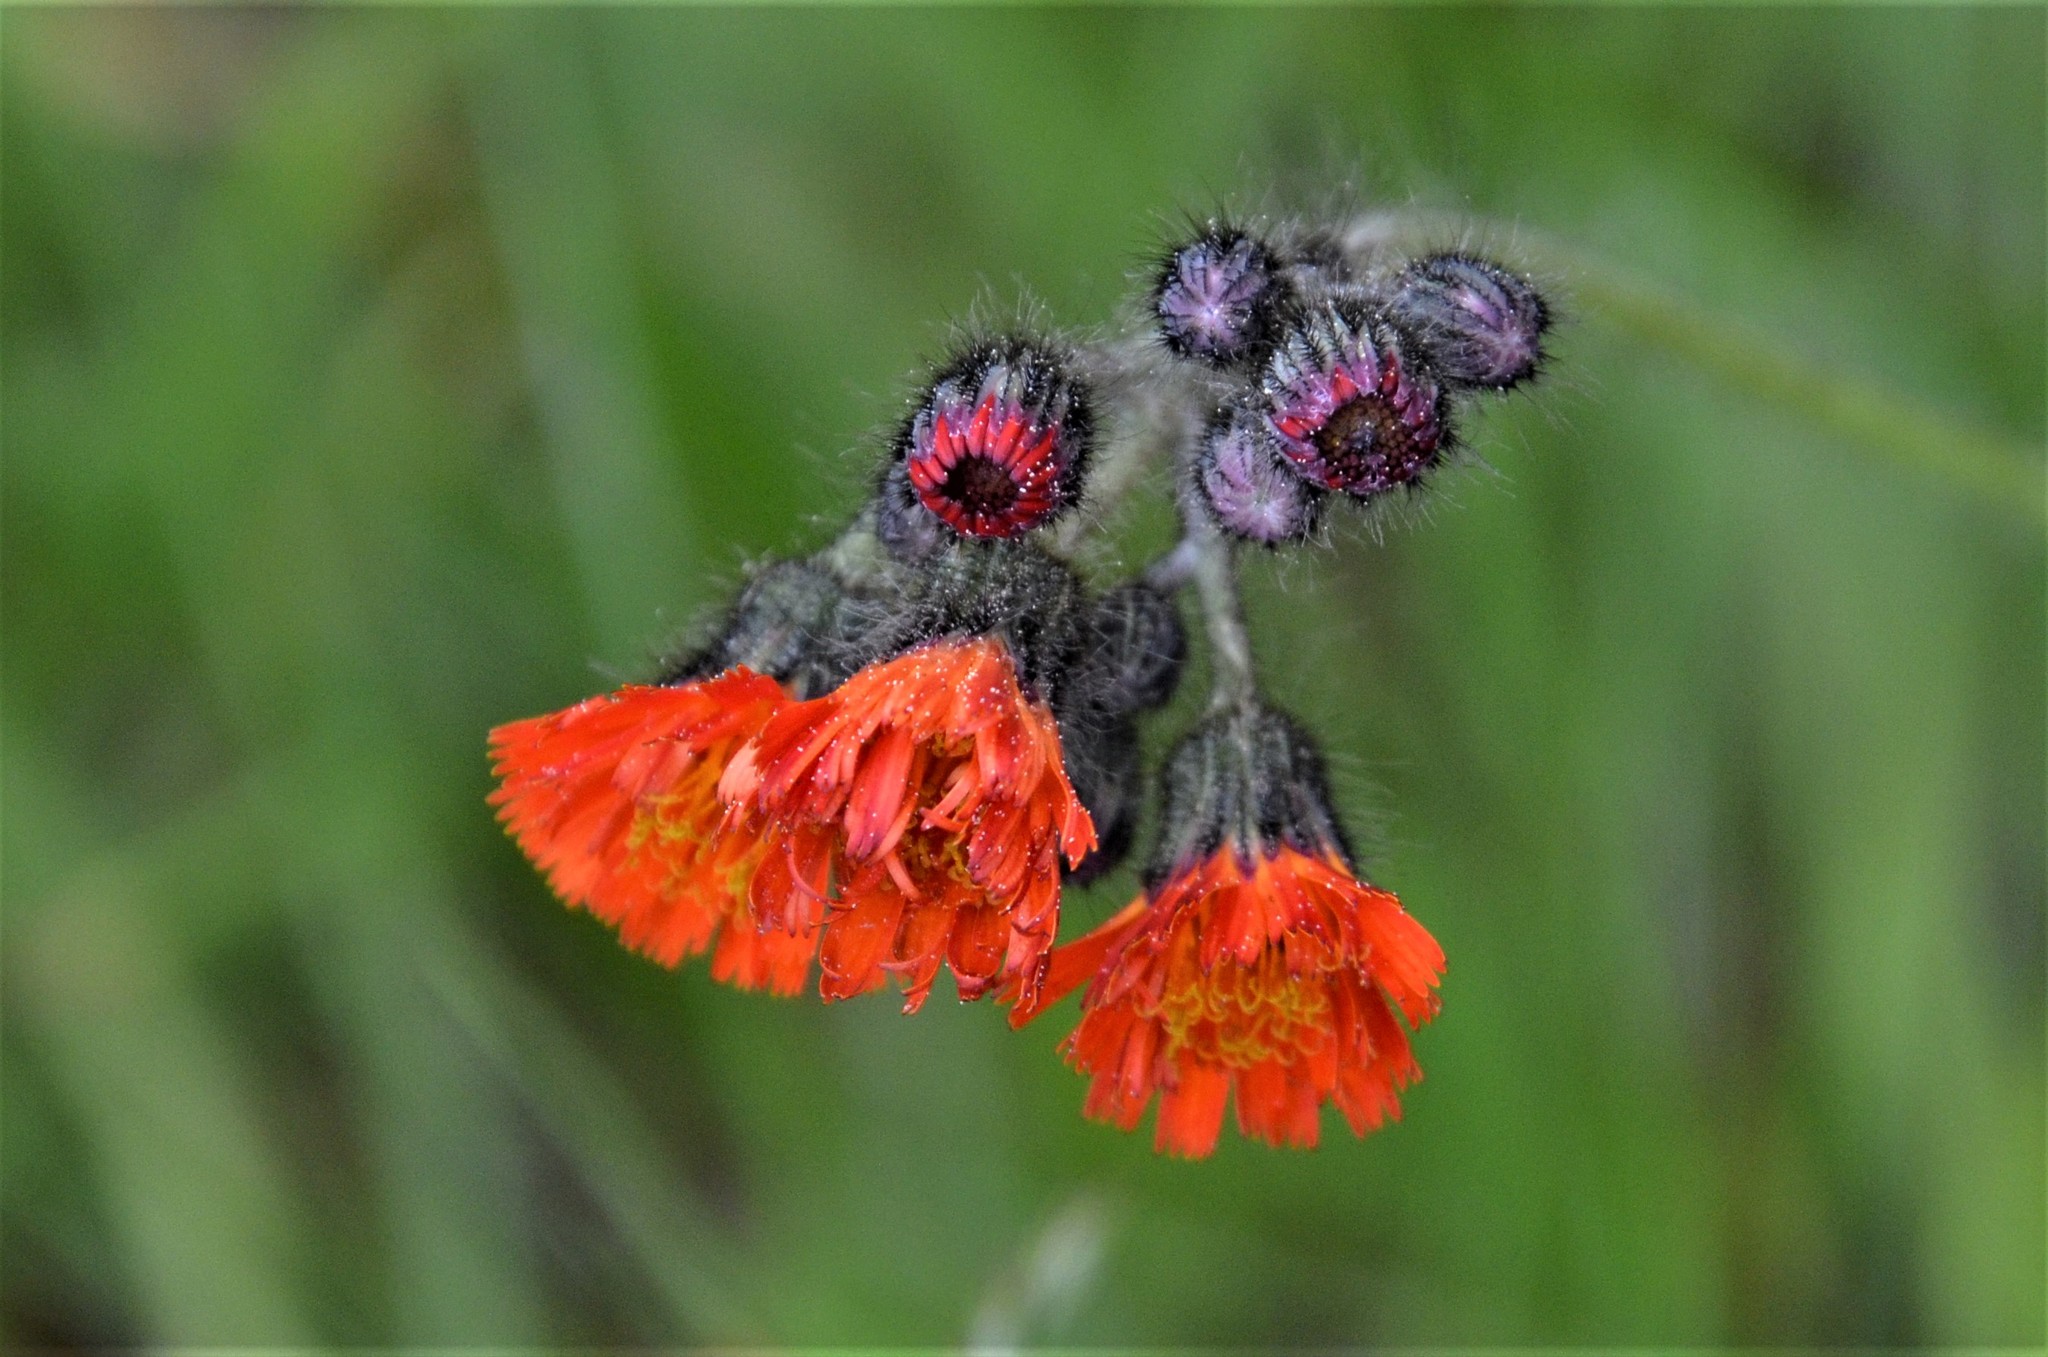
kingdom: Plantae
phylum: Tracheophyta
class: Magnoliopsida
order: Asterales
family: Asteraceae
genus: Pilosella
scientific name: Pilosella aurantiaca
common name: Fox-and-cubs
